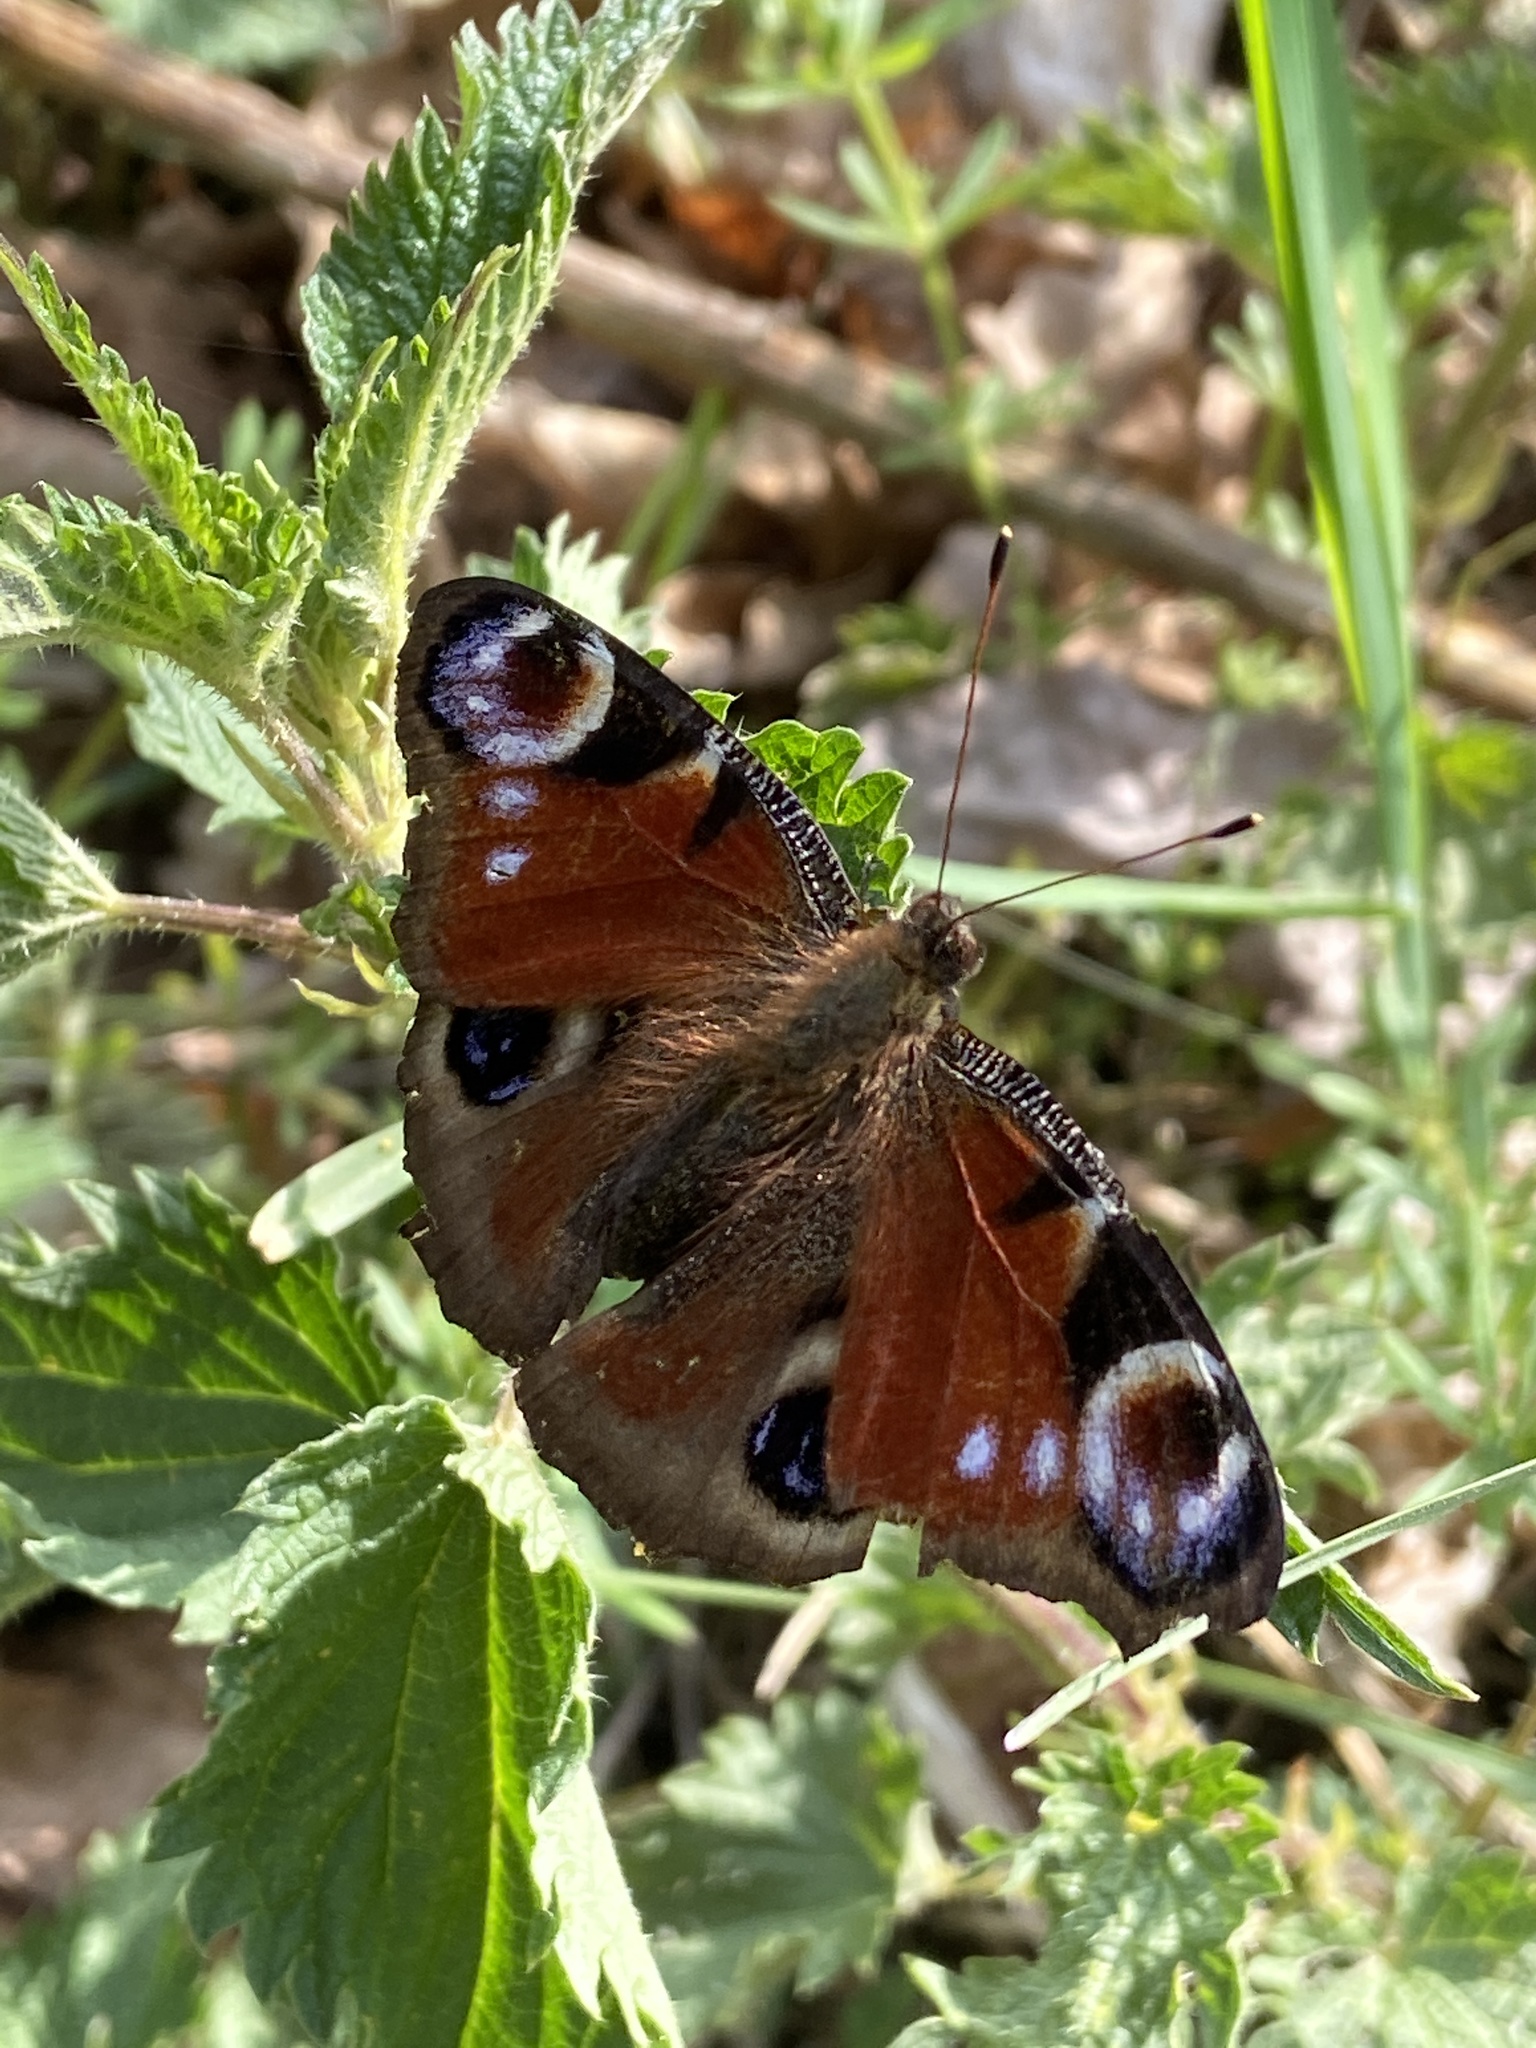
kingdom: Animalia
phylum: Arthropoda
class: Insecta
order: Lepidoptera
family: Nymphalidae
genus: Aglais
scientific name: Aglais io
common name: Peacock
